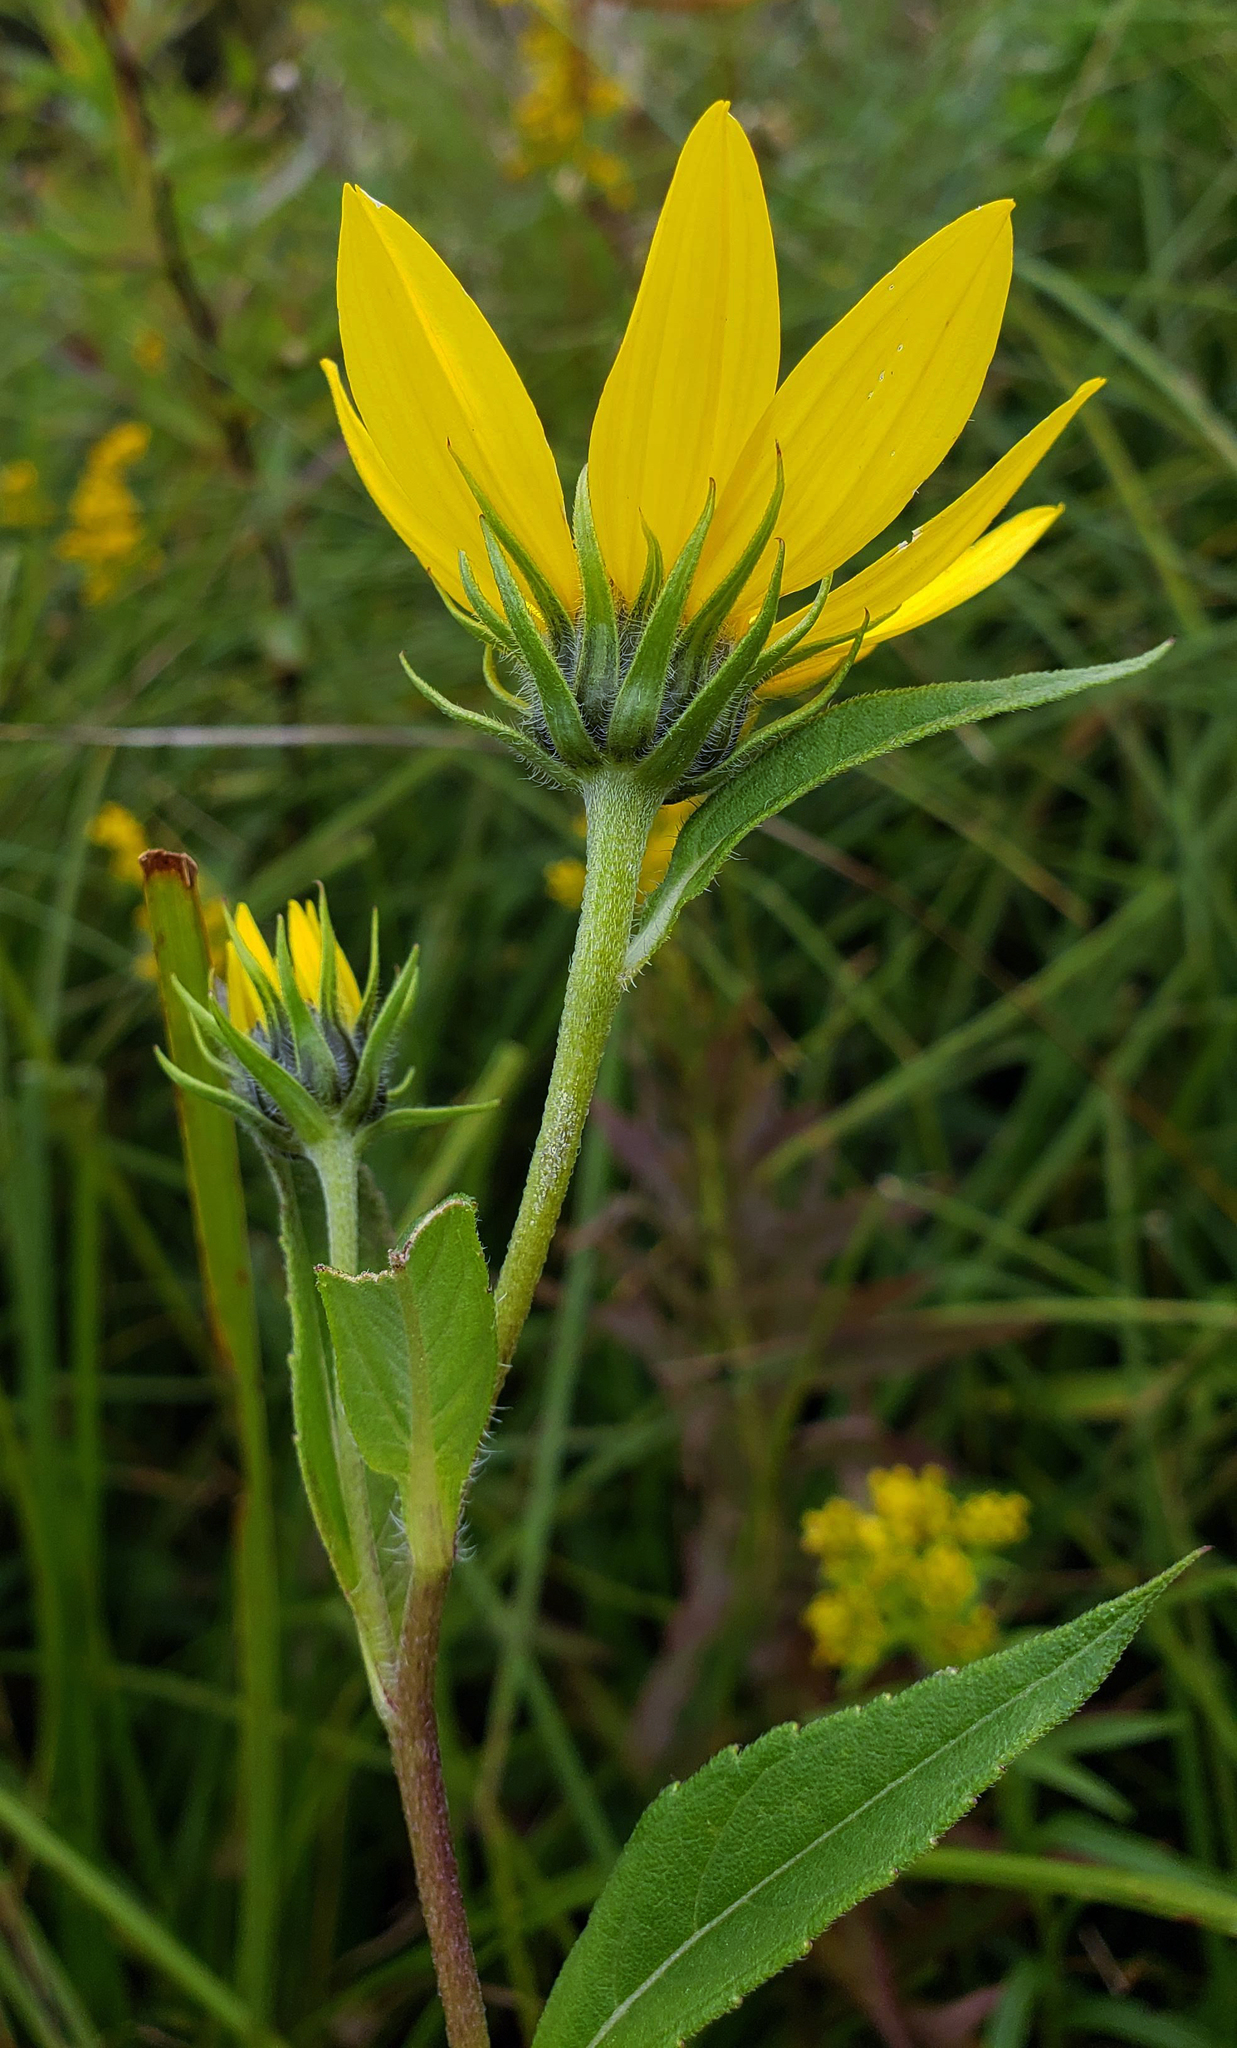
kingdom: Plantae
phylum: Tracheophyta
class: Magnoliopsida
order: Asterales
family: Asteraceae
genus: Helianthus
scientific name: Helianthus giganteus
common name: Giant sunflower
